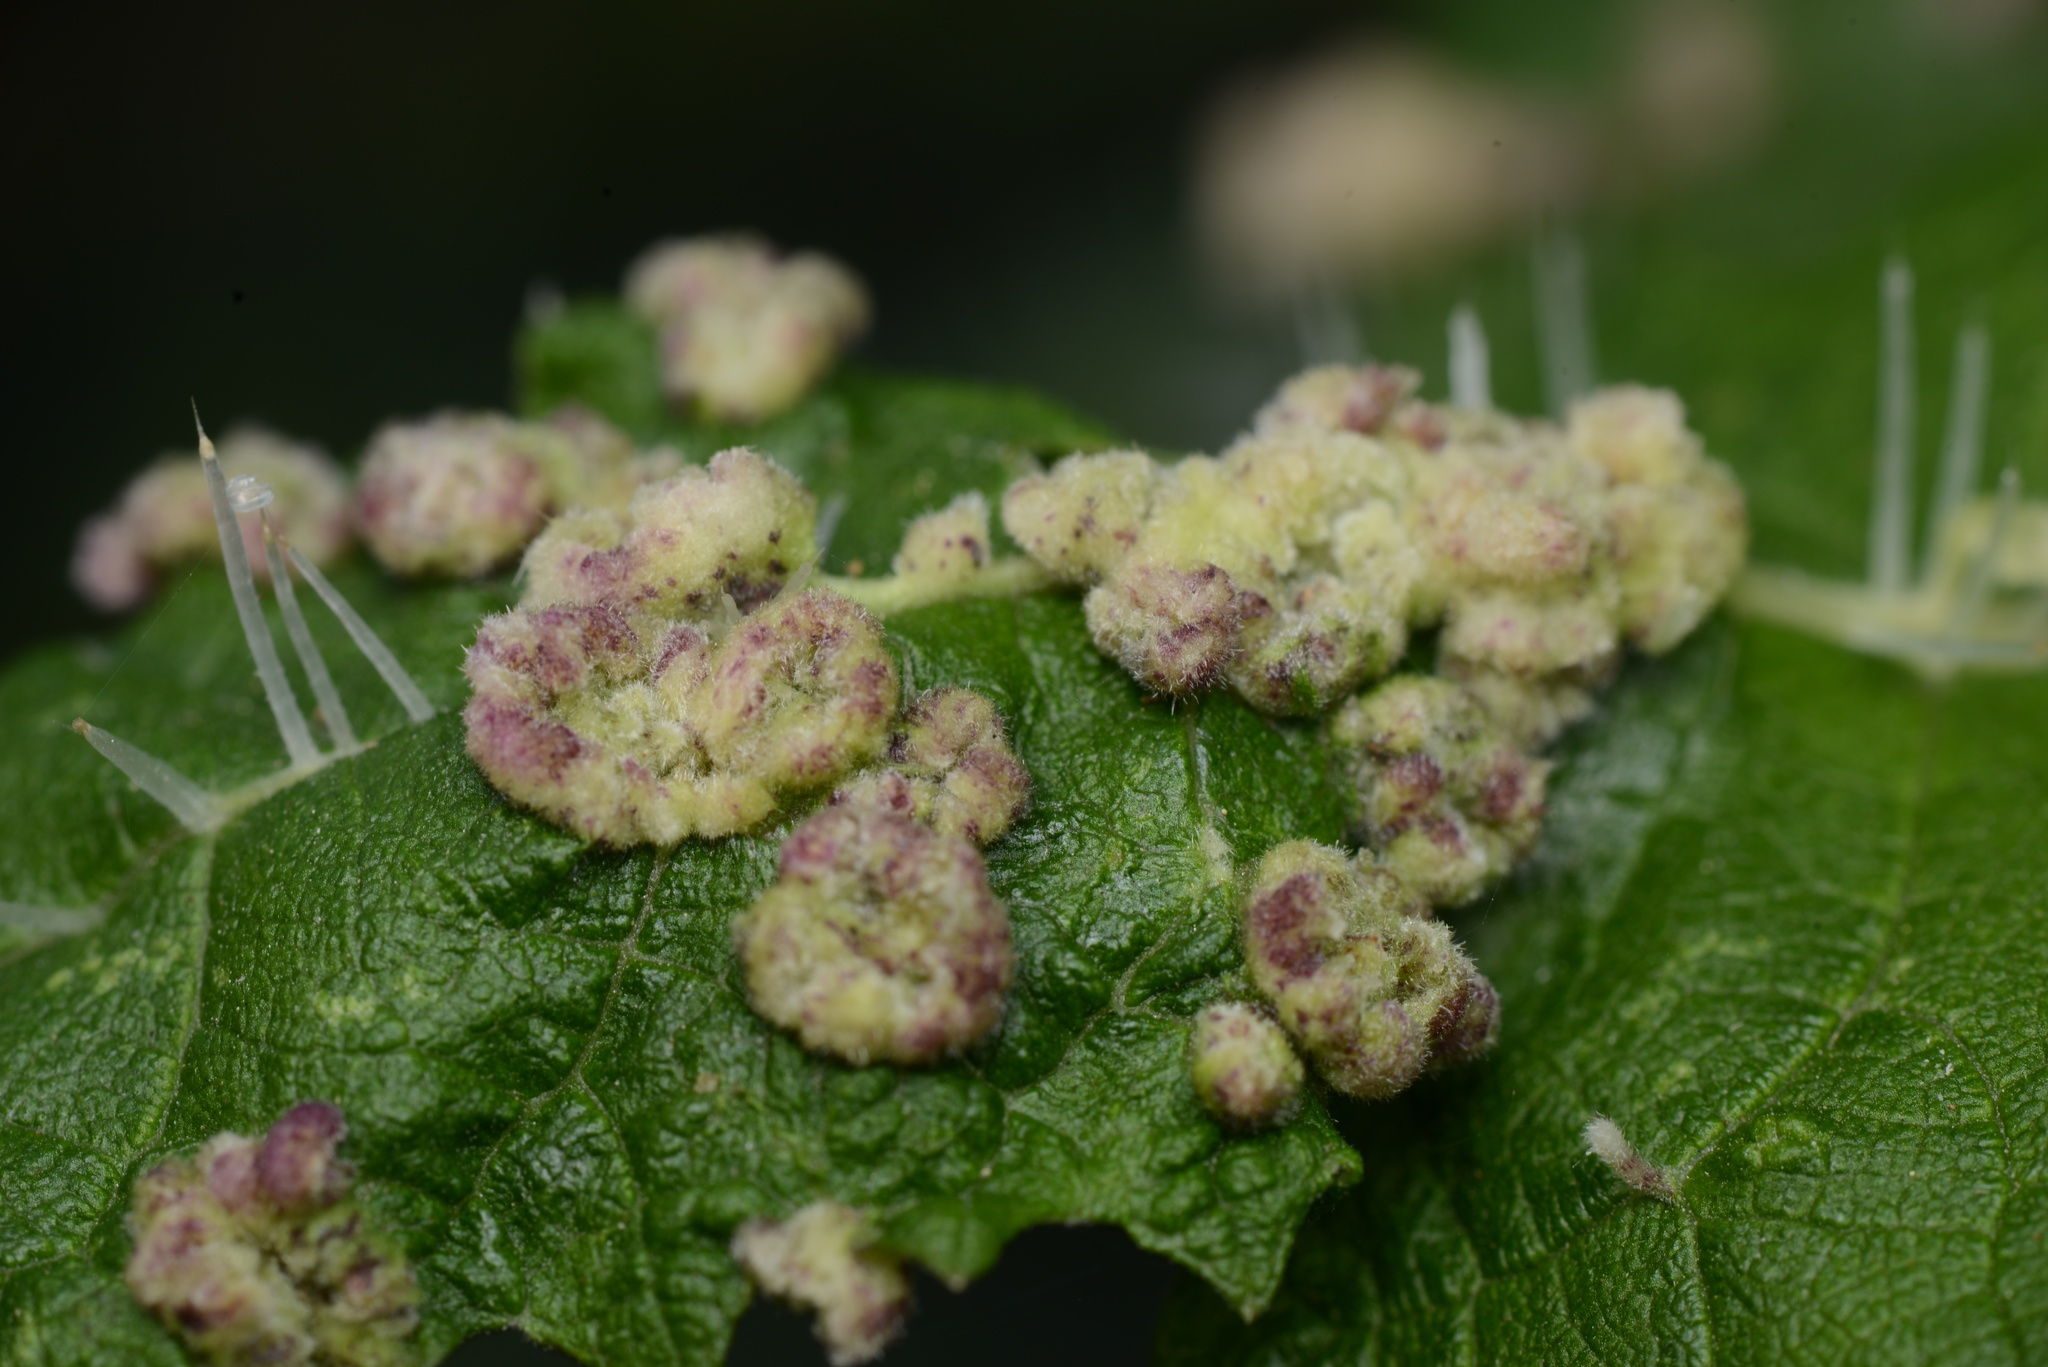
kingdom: Animalia
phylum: Arthropoda
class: Arachnida
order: Trombidiformes
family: Eriophyidae
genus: Vittacus
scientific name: Vittacus
